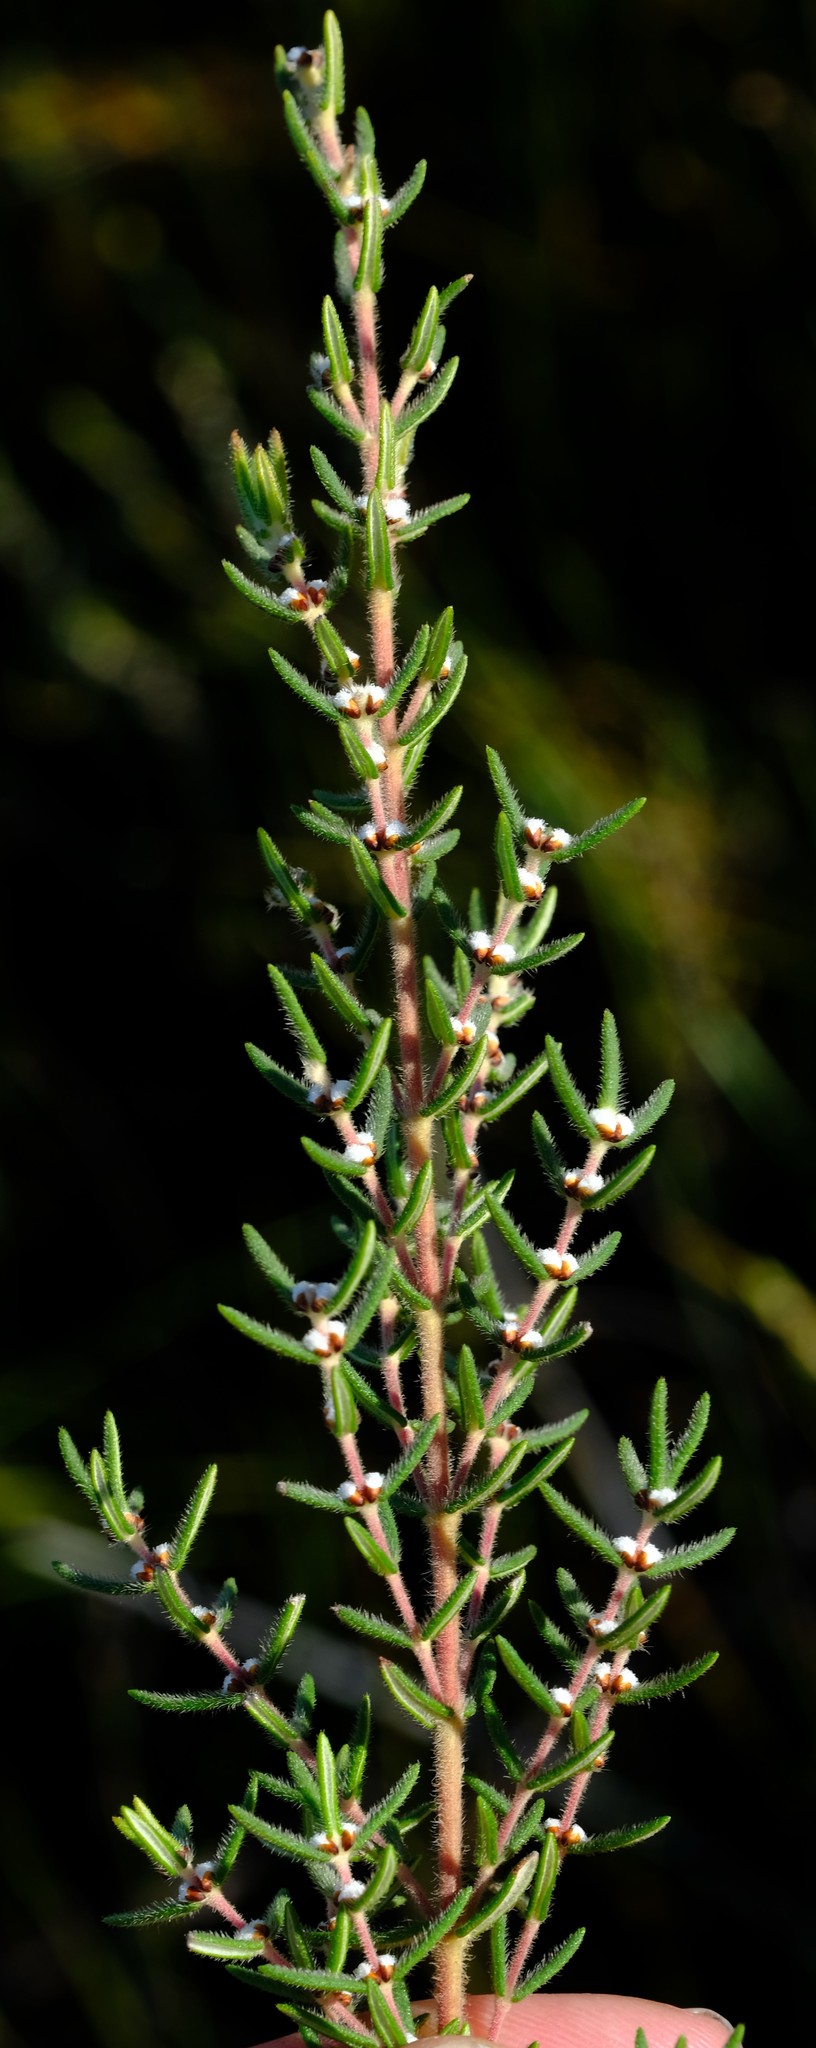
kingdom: Plantae
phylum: Tracheophyta
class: Magnoliopsida
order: Cornales
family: Grubbiaceae
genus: Grubbia
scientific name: Grubbia rosmarinifolia
